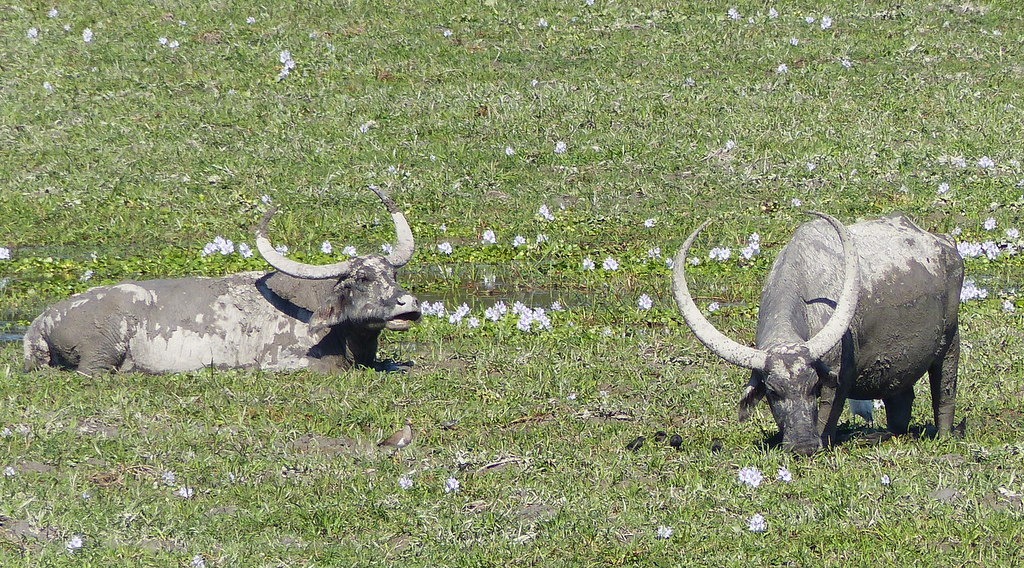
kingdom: Animalia
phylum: Chordata
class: Mammalia
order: Artiodactyla
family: Bovidae
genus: Bubalus
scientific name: Bubalus bubalis
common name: Water buffalo
